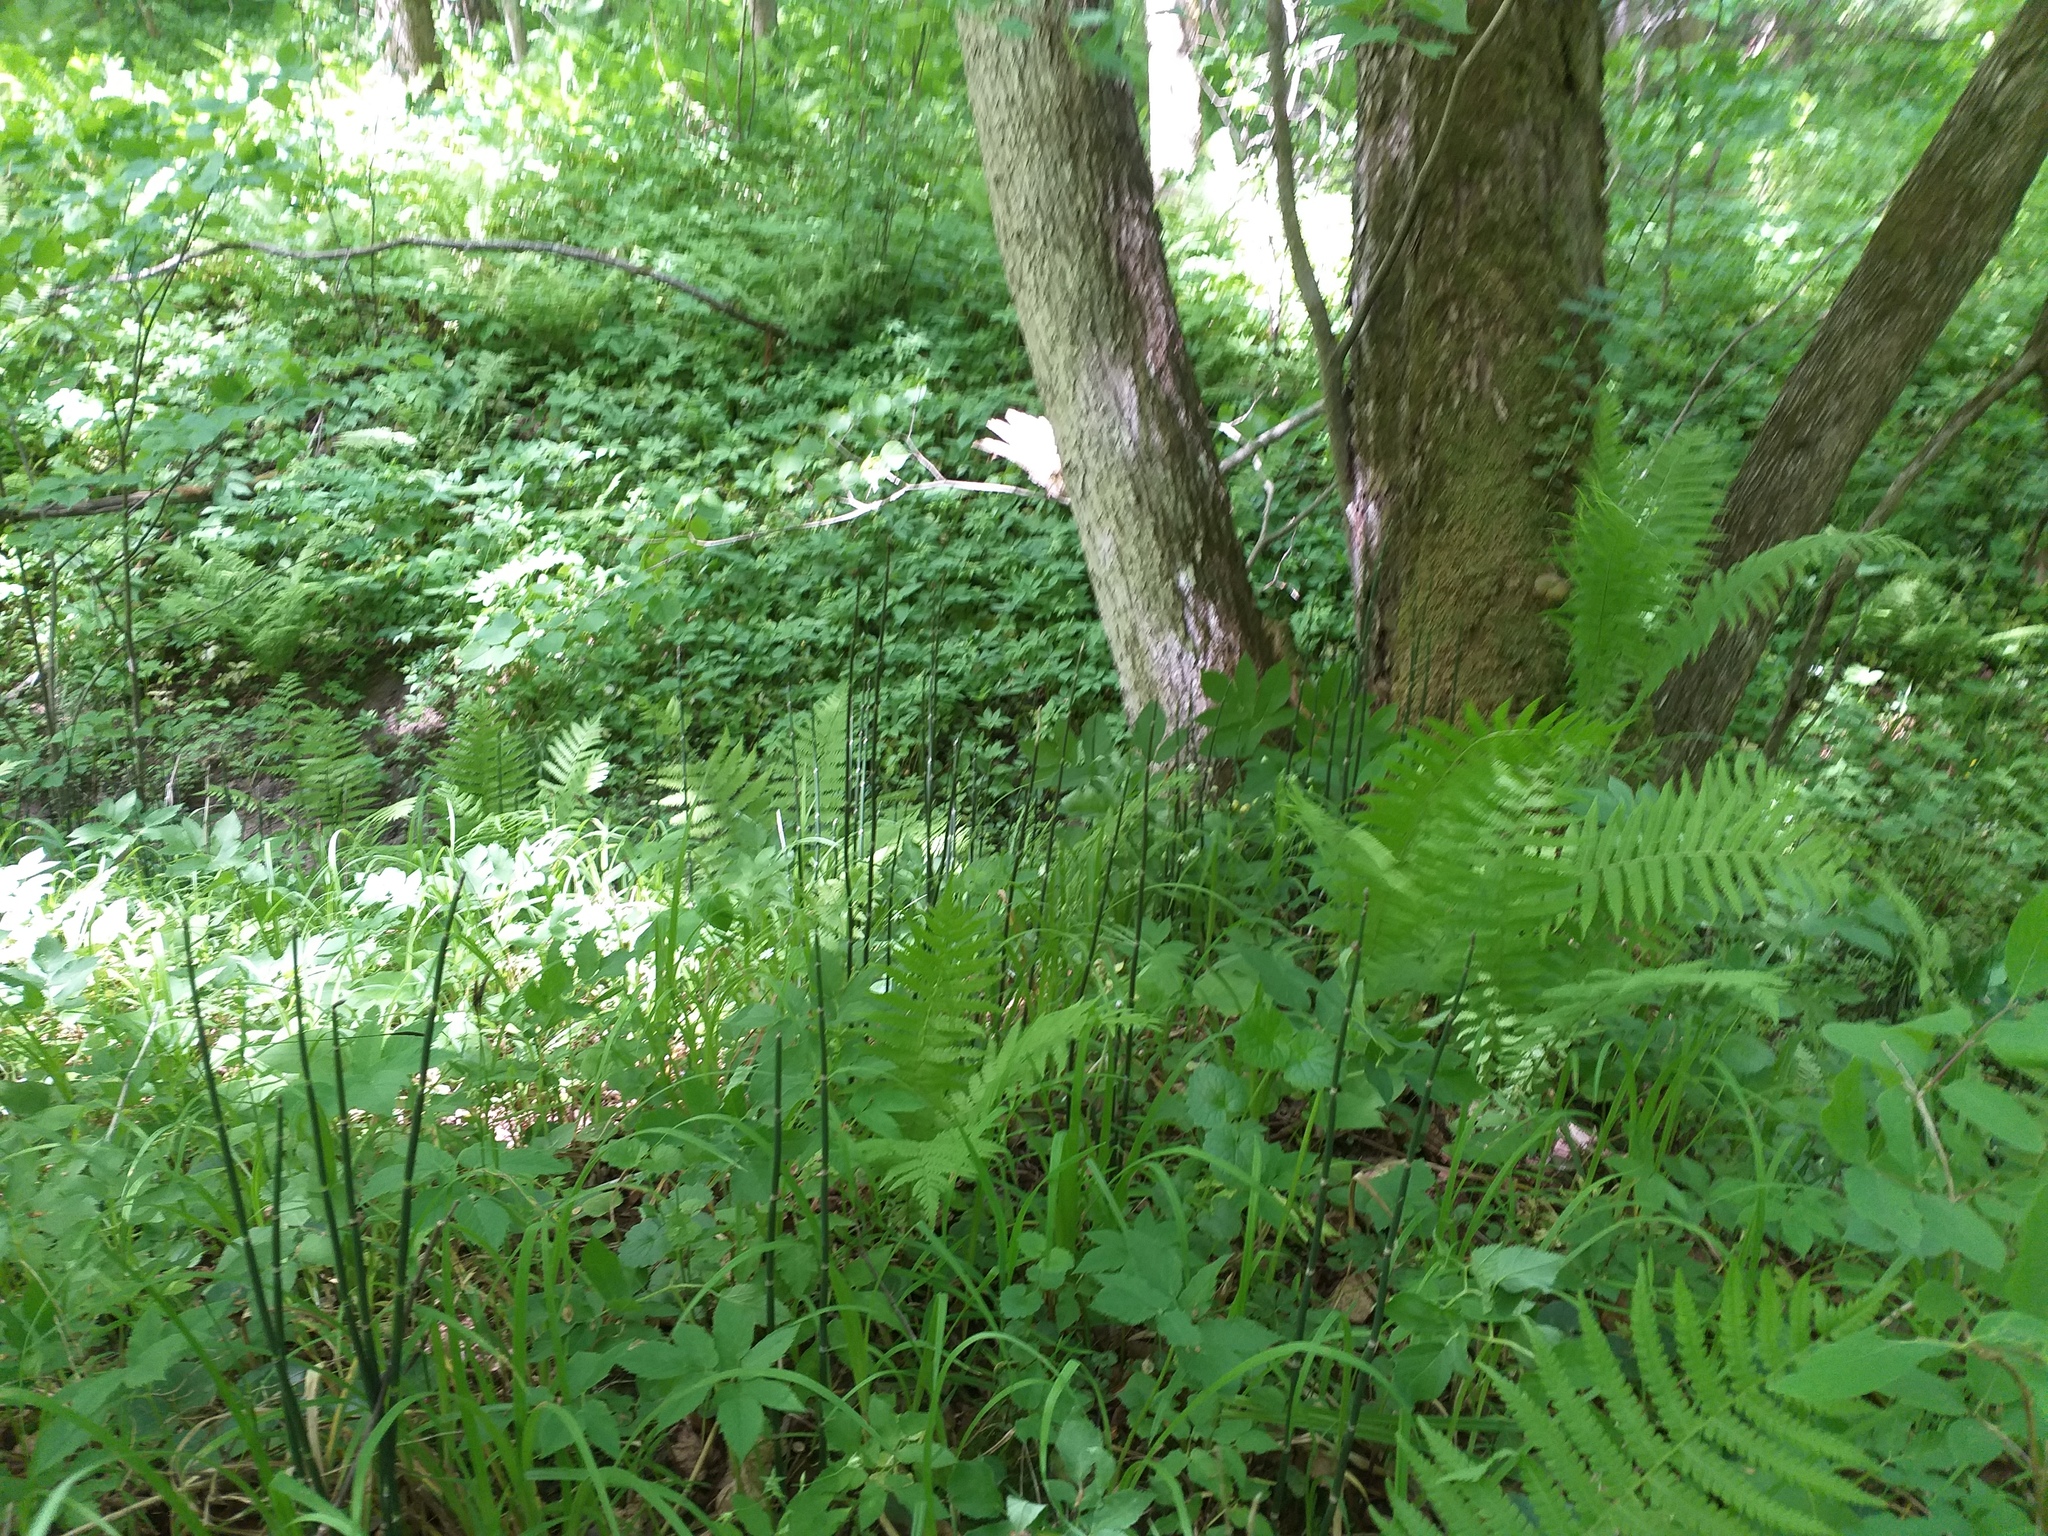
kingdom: Plantae
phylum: Tracheophyta
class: Polypodiopsida
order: Equisetales
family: Equisetaceae
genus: Equisetum
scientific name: Equisetum hyemale
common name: Rough horsetail
